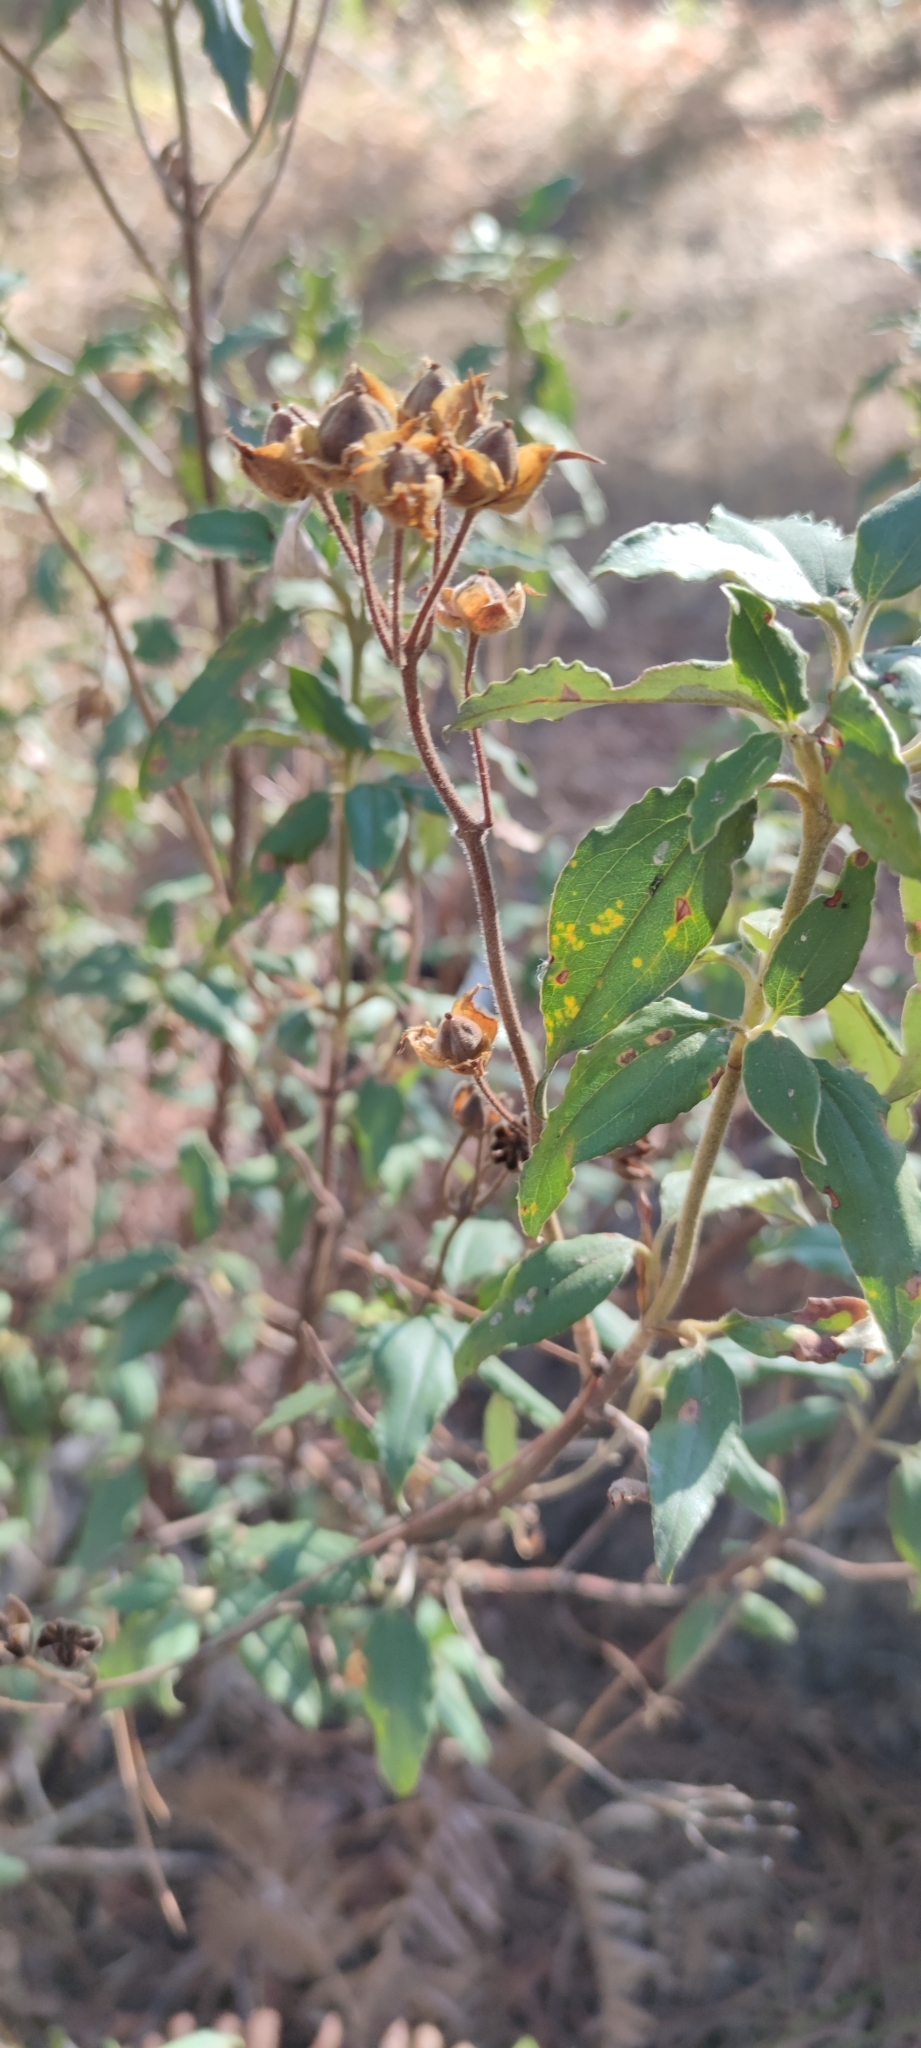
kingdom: Plantae
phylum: Tracheophyta
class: Magnoliopsida
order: Malvales
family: Cistaceae
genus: Cistus
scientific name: Cistus laurifolius
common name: Laurel-leaved cistus
